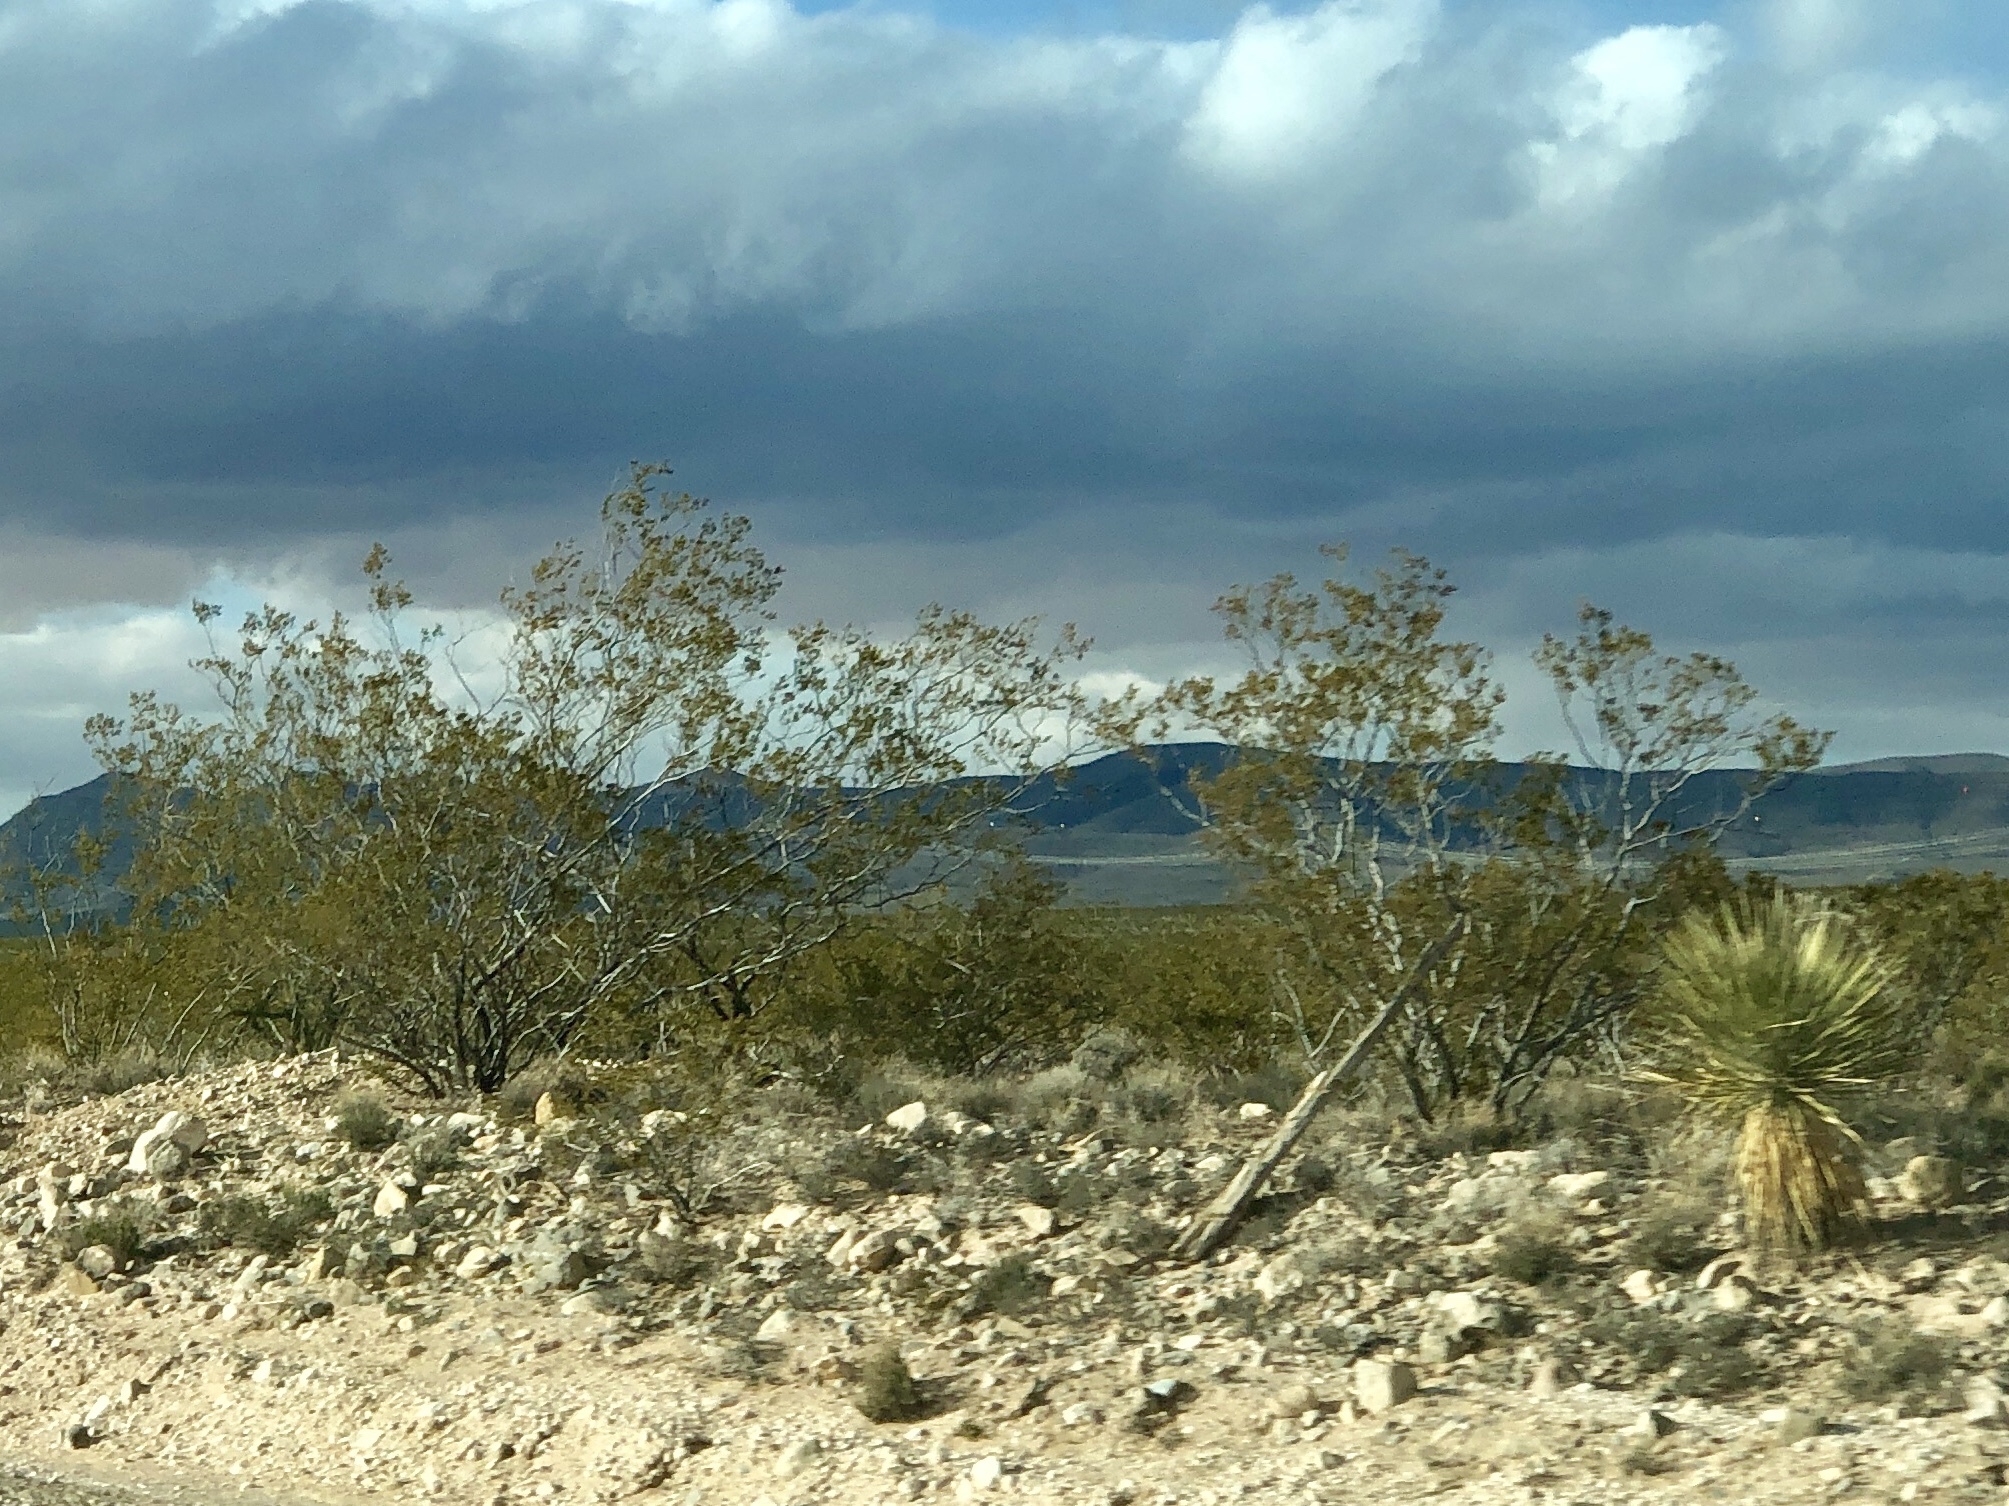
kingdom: Plantae
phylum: Tracheophyta
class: Magnoliopsida
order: Zygophyllales
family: Zygophyllaceae
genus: Larrea
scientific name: Larrea tridentata
